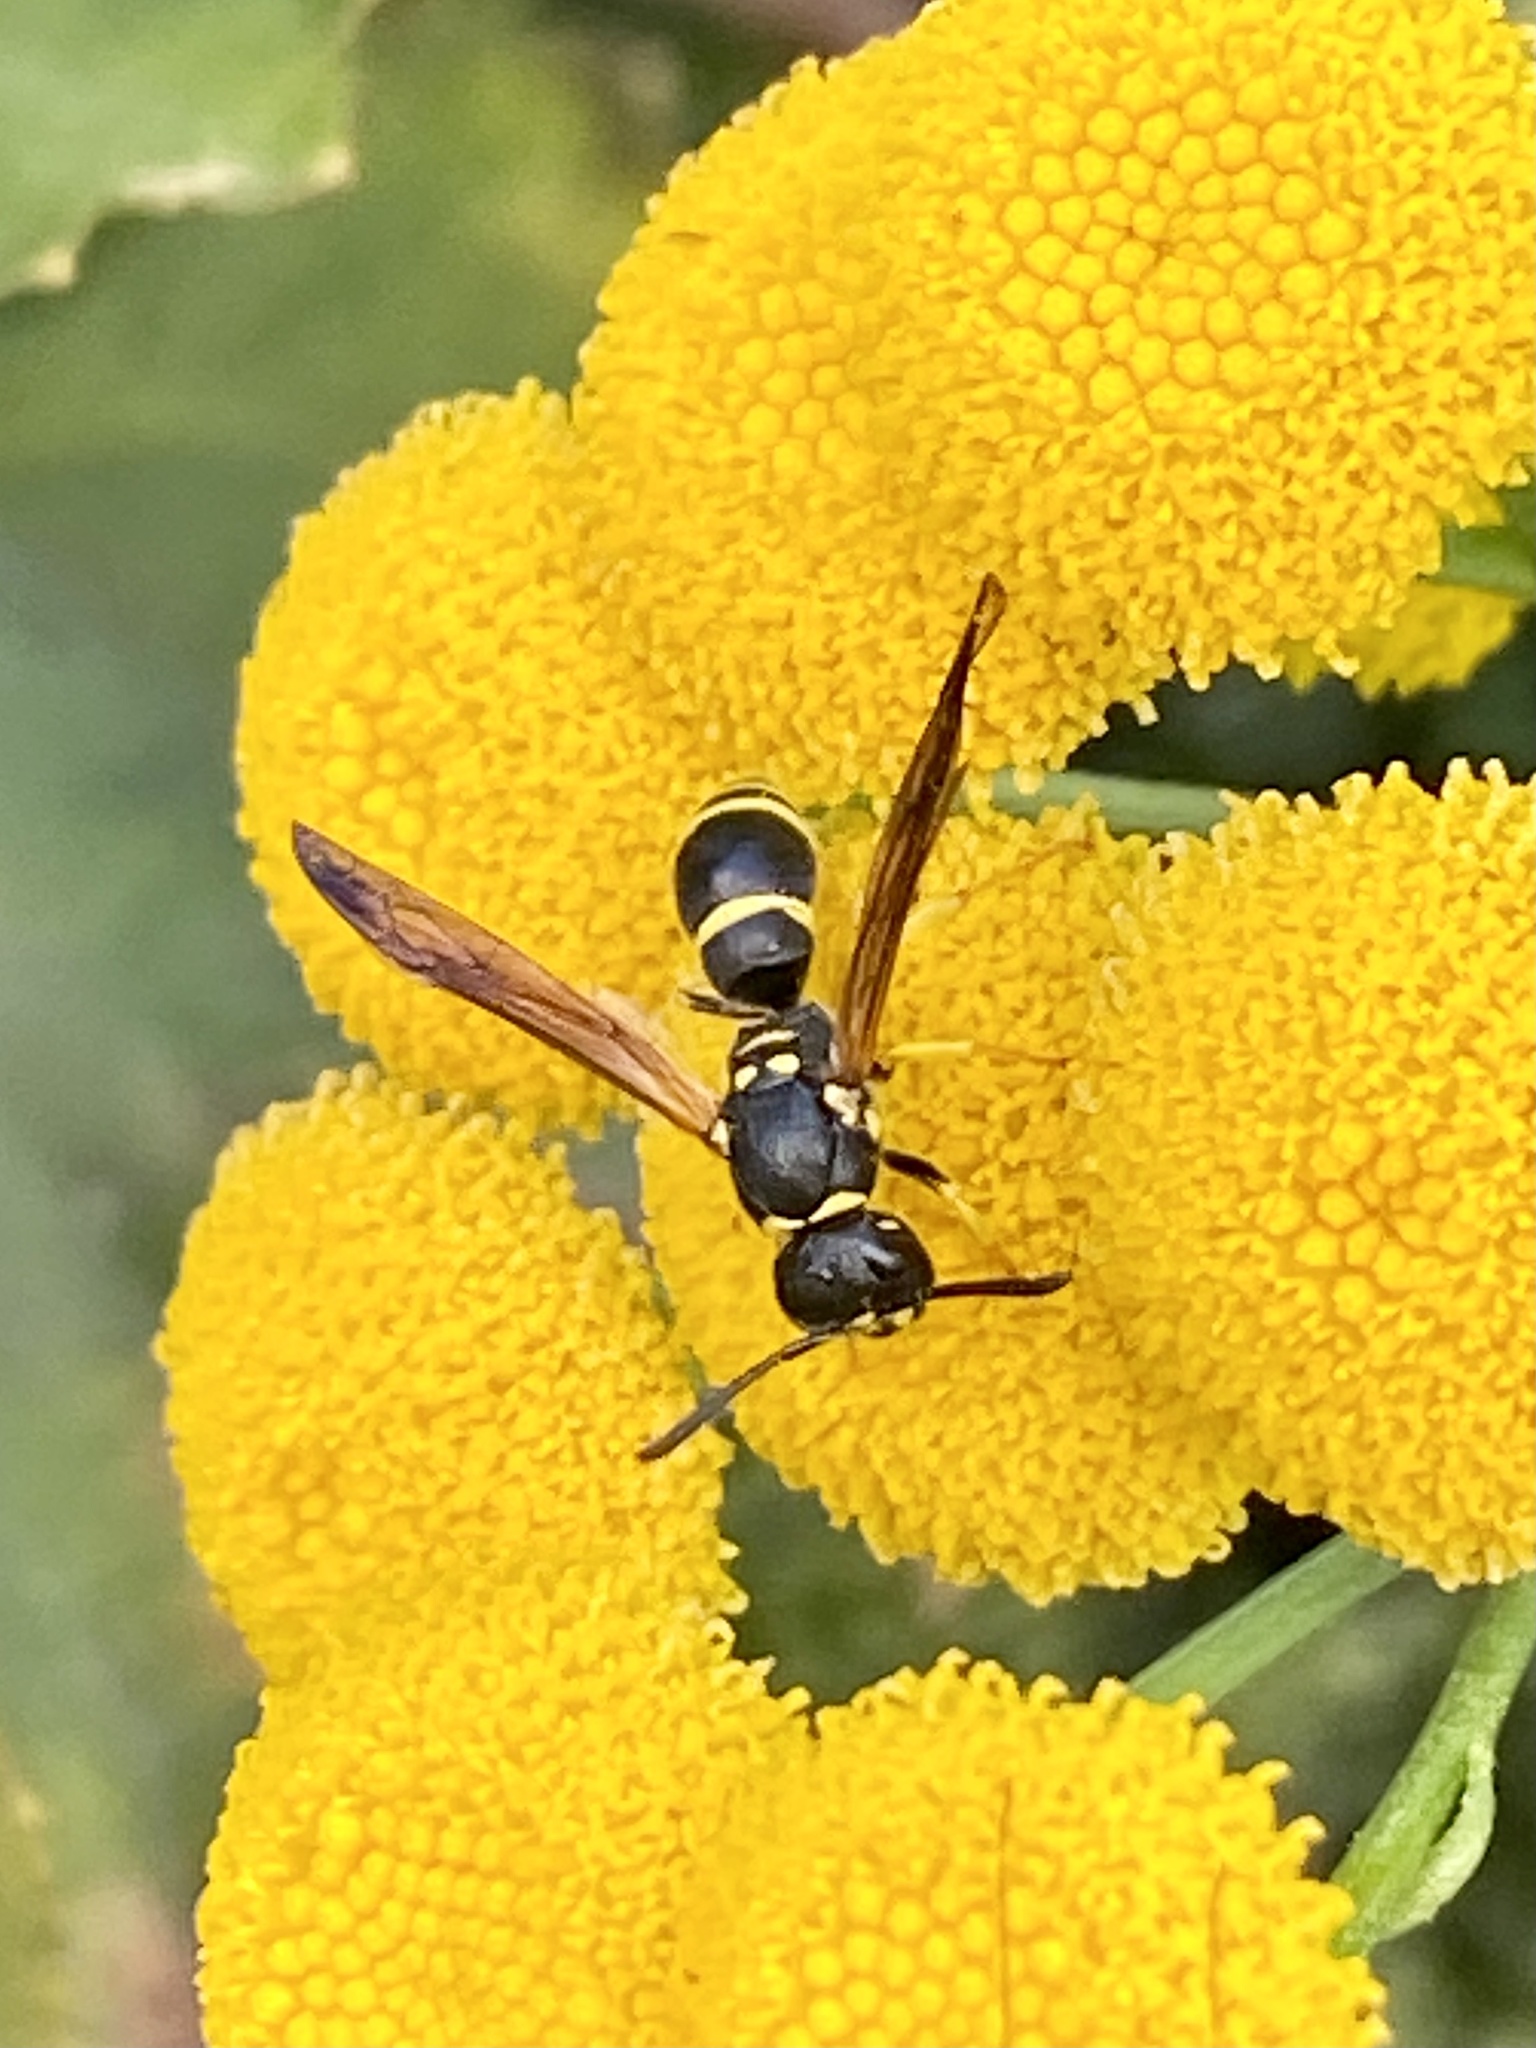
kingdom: Animalia
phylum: Arthropoda
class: Insecta
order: Hymenoptera
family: Vespidae
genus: Ancistrocerus
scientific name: Ancistrocerus adiabatus
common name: Bramble mason wasp
